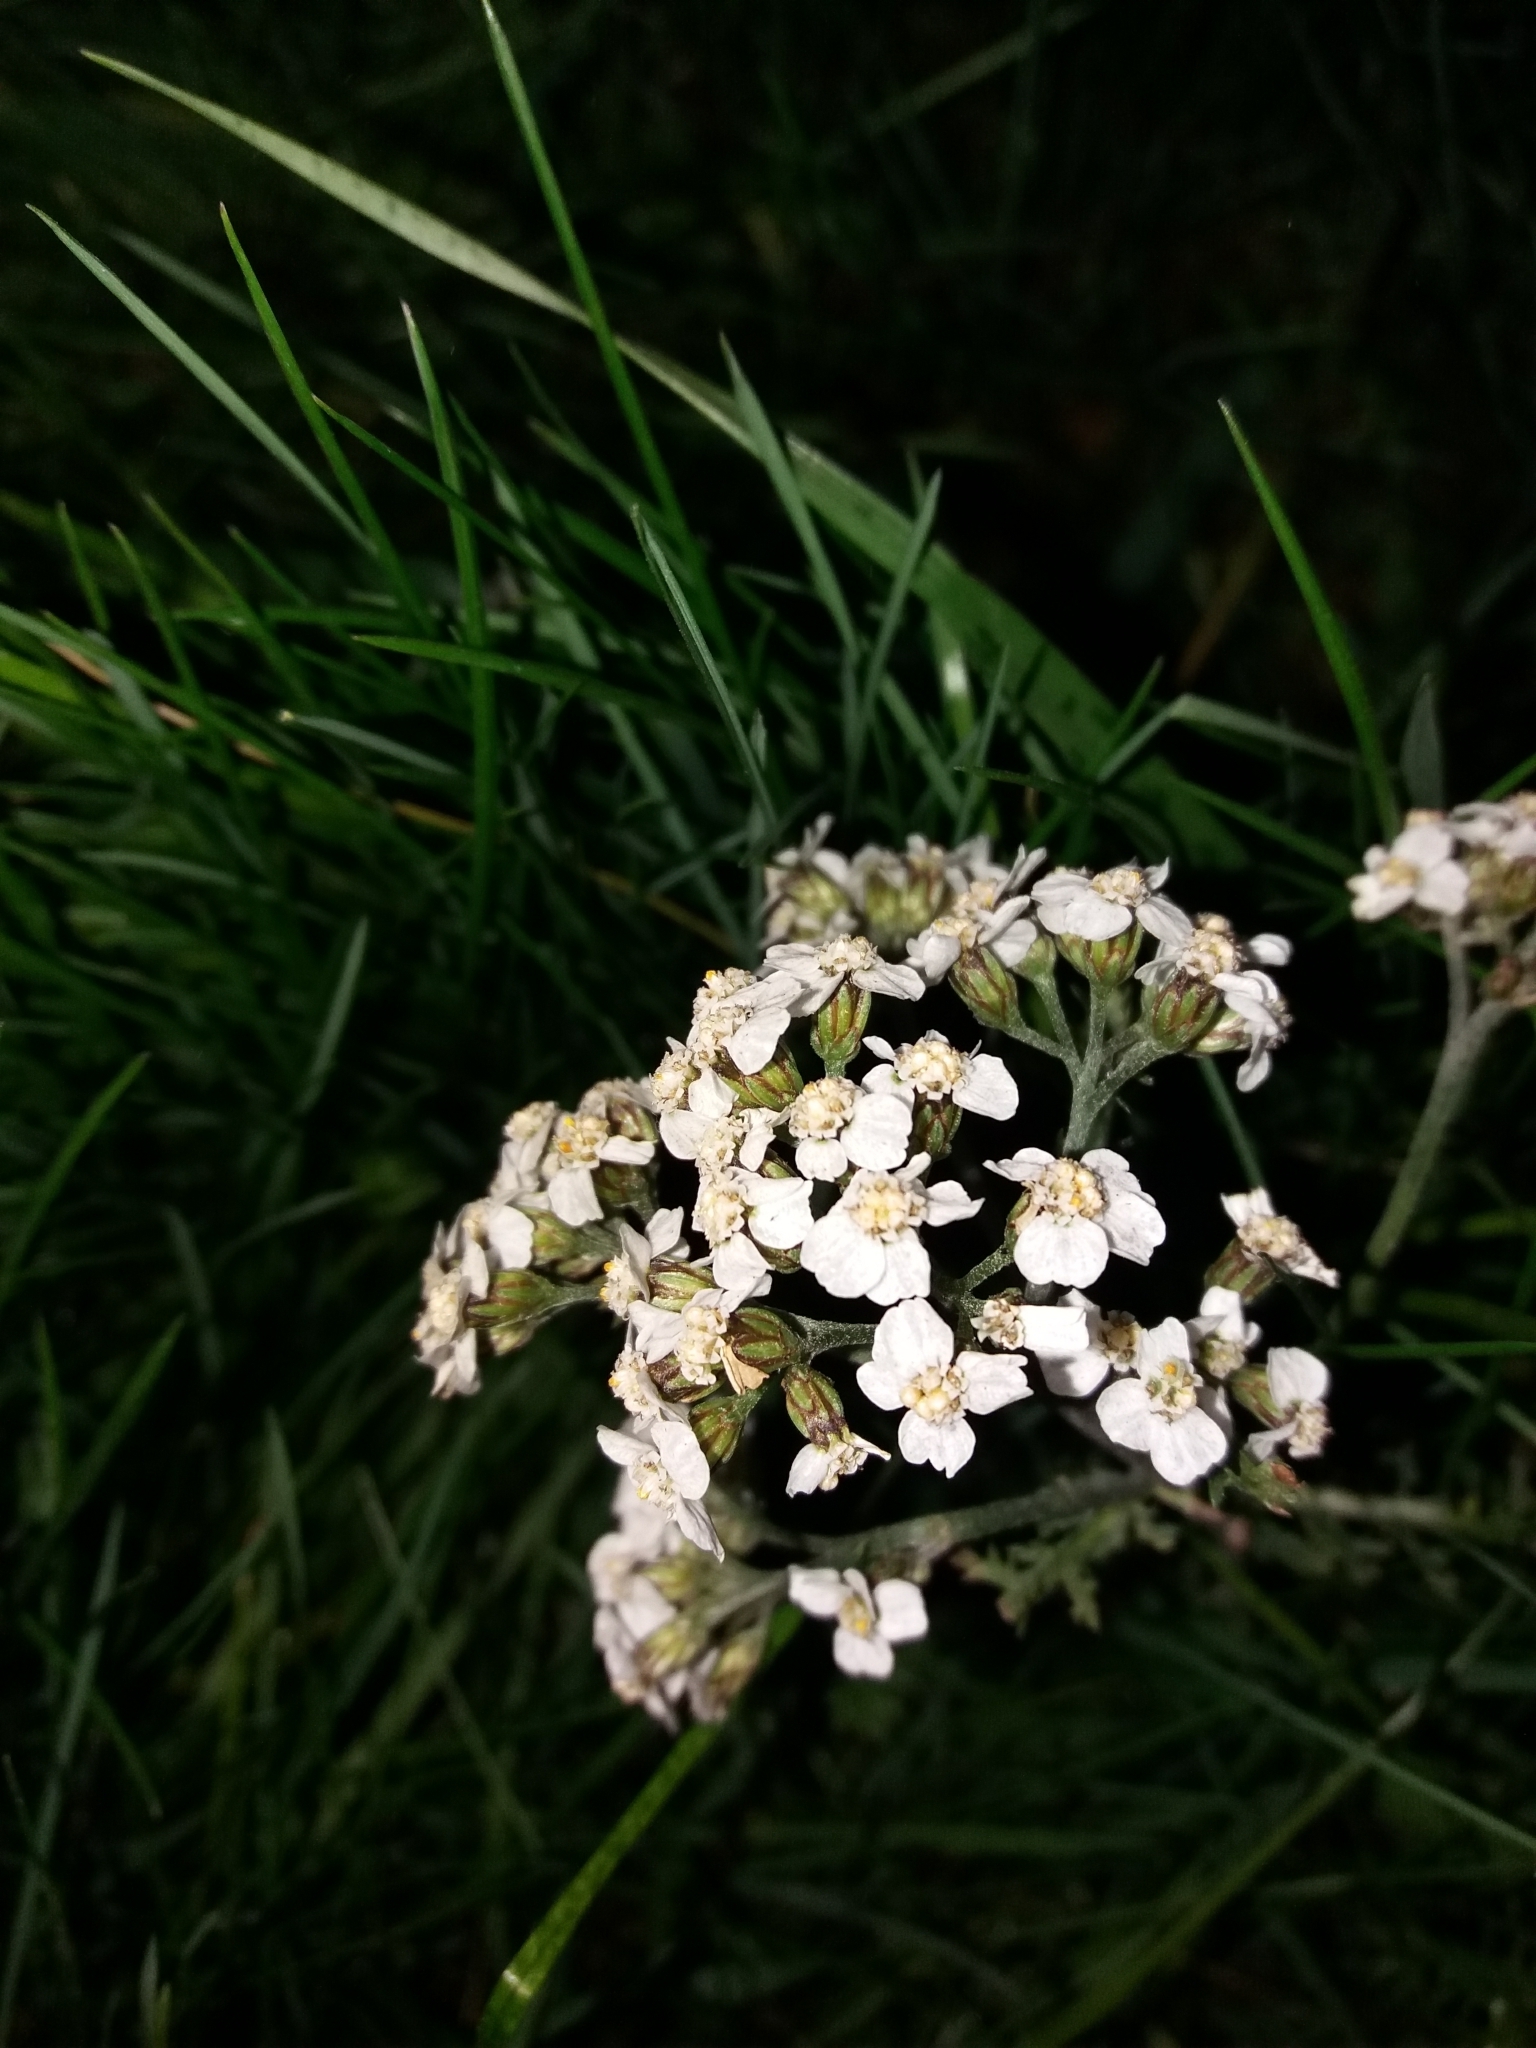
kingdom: Plantae
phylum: Tracheophyta
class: Magnoliopsida
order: Asterales
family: Asteraceae
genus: Achillea
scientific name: Achillea millefolium
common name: Yarrow
